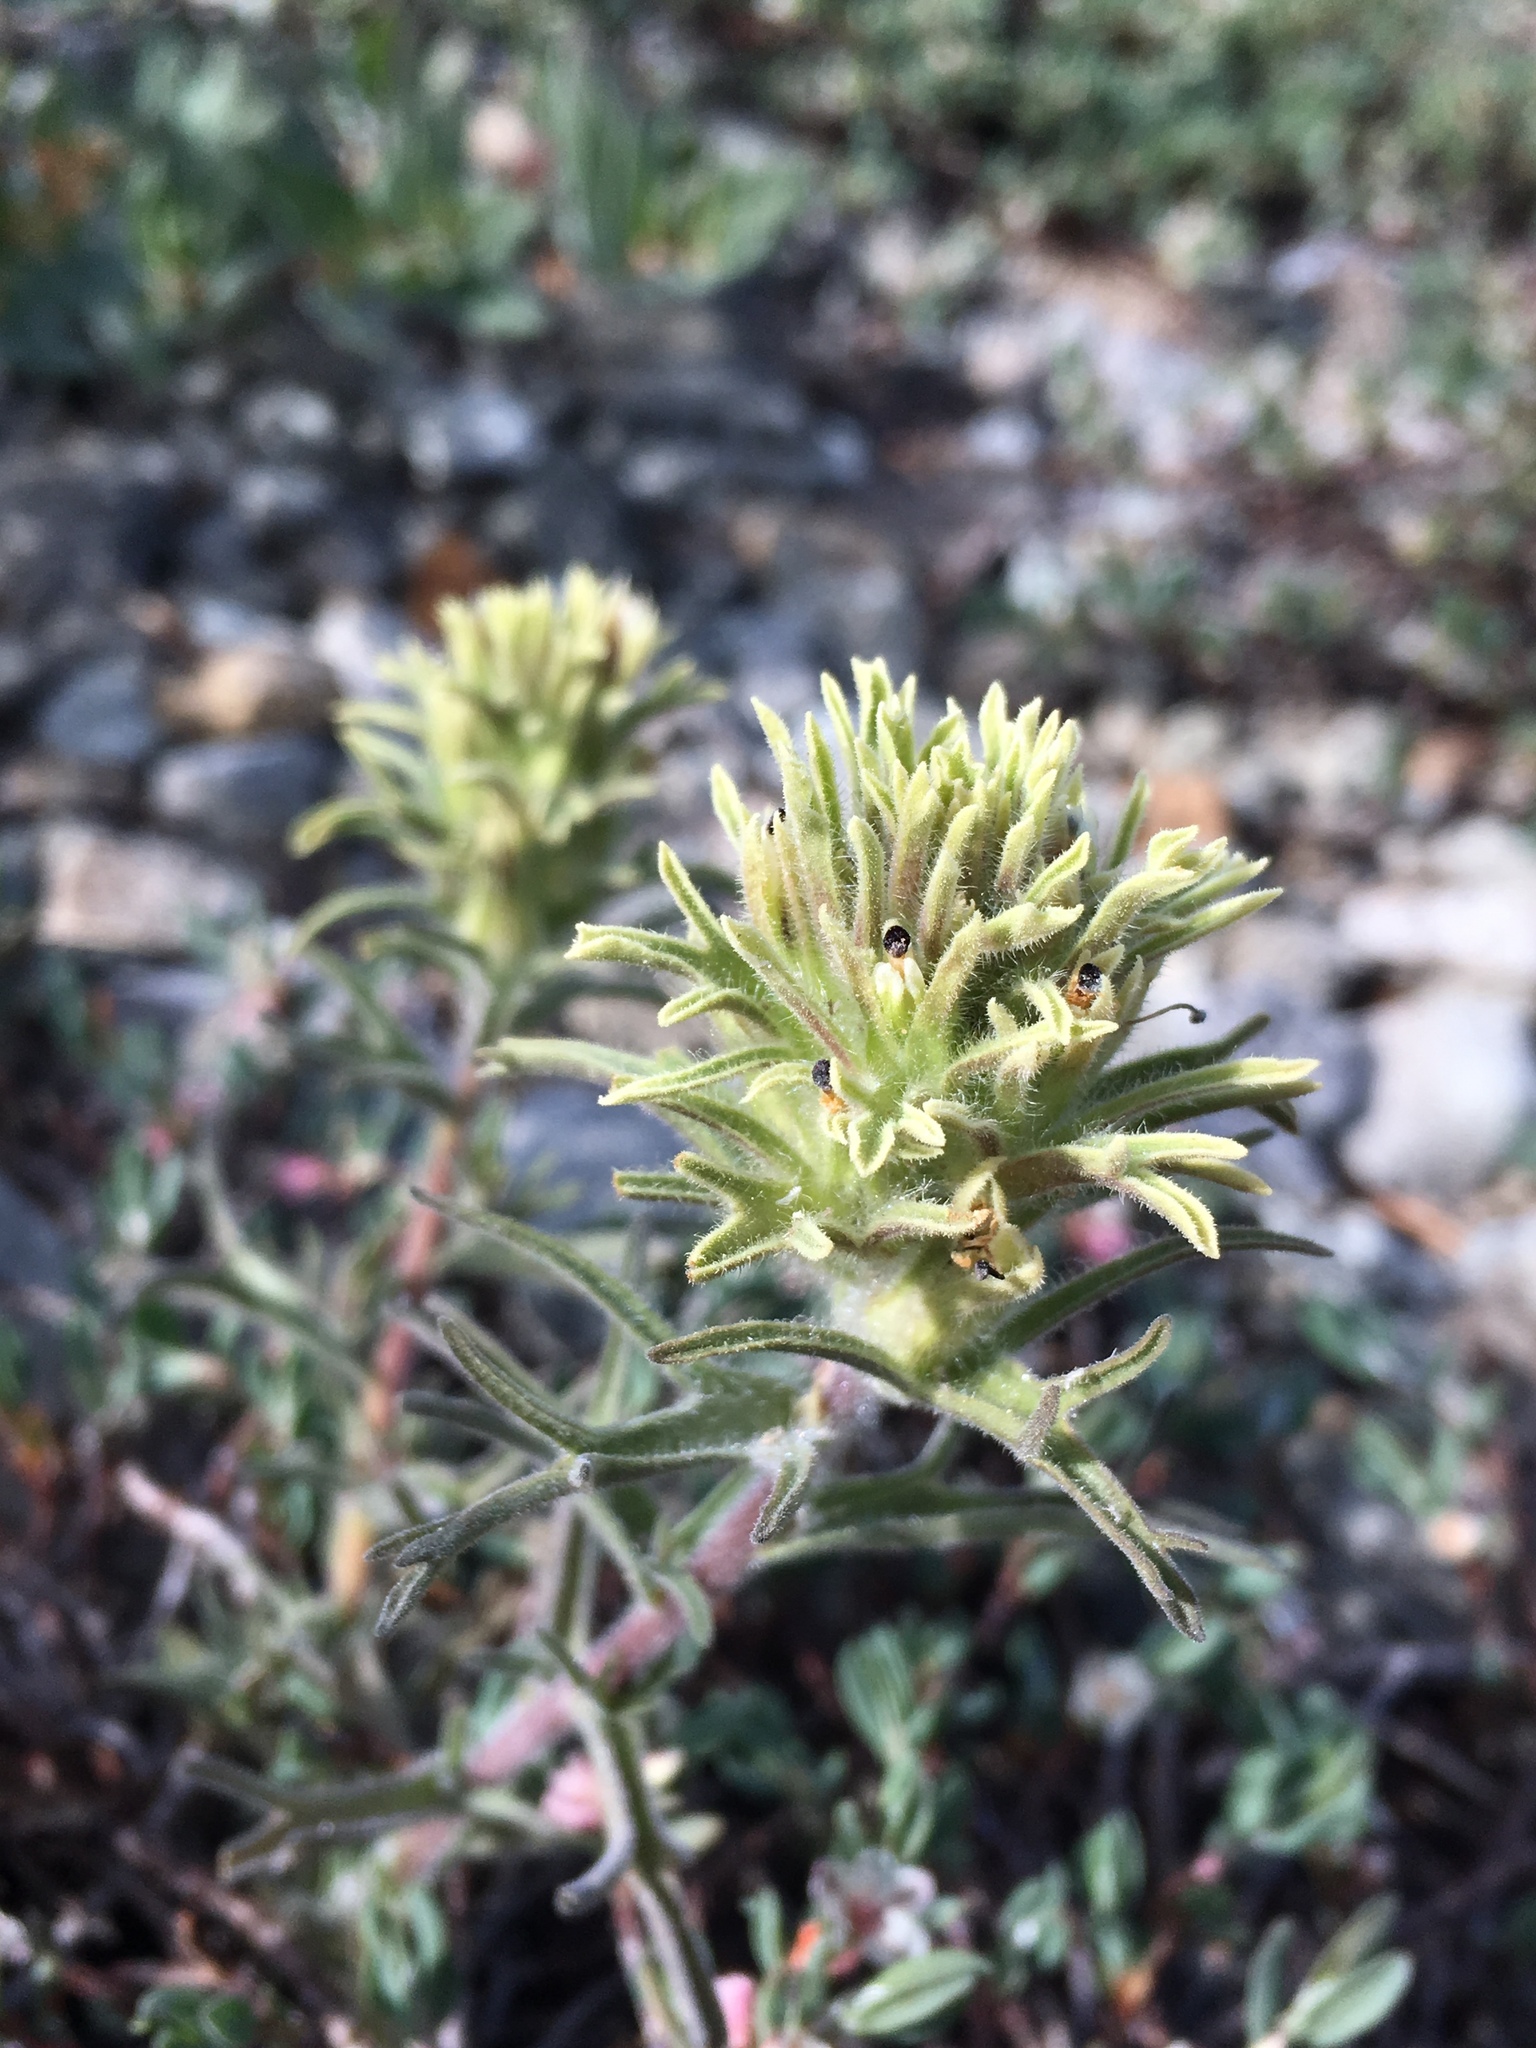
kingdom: Plantae
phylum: Tracheophyta
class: Magnoliopsida
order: Lamiales
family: Orobanchaceae
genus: Castilleja
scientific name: Castilleja nana
